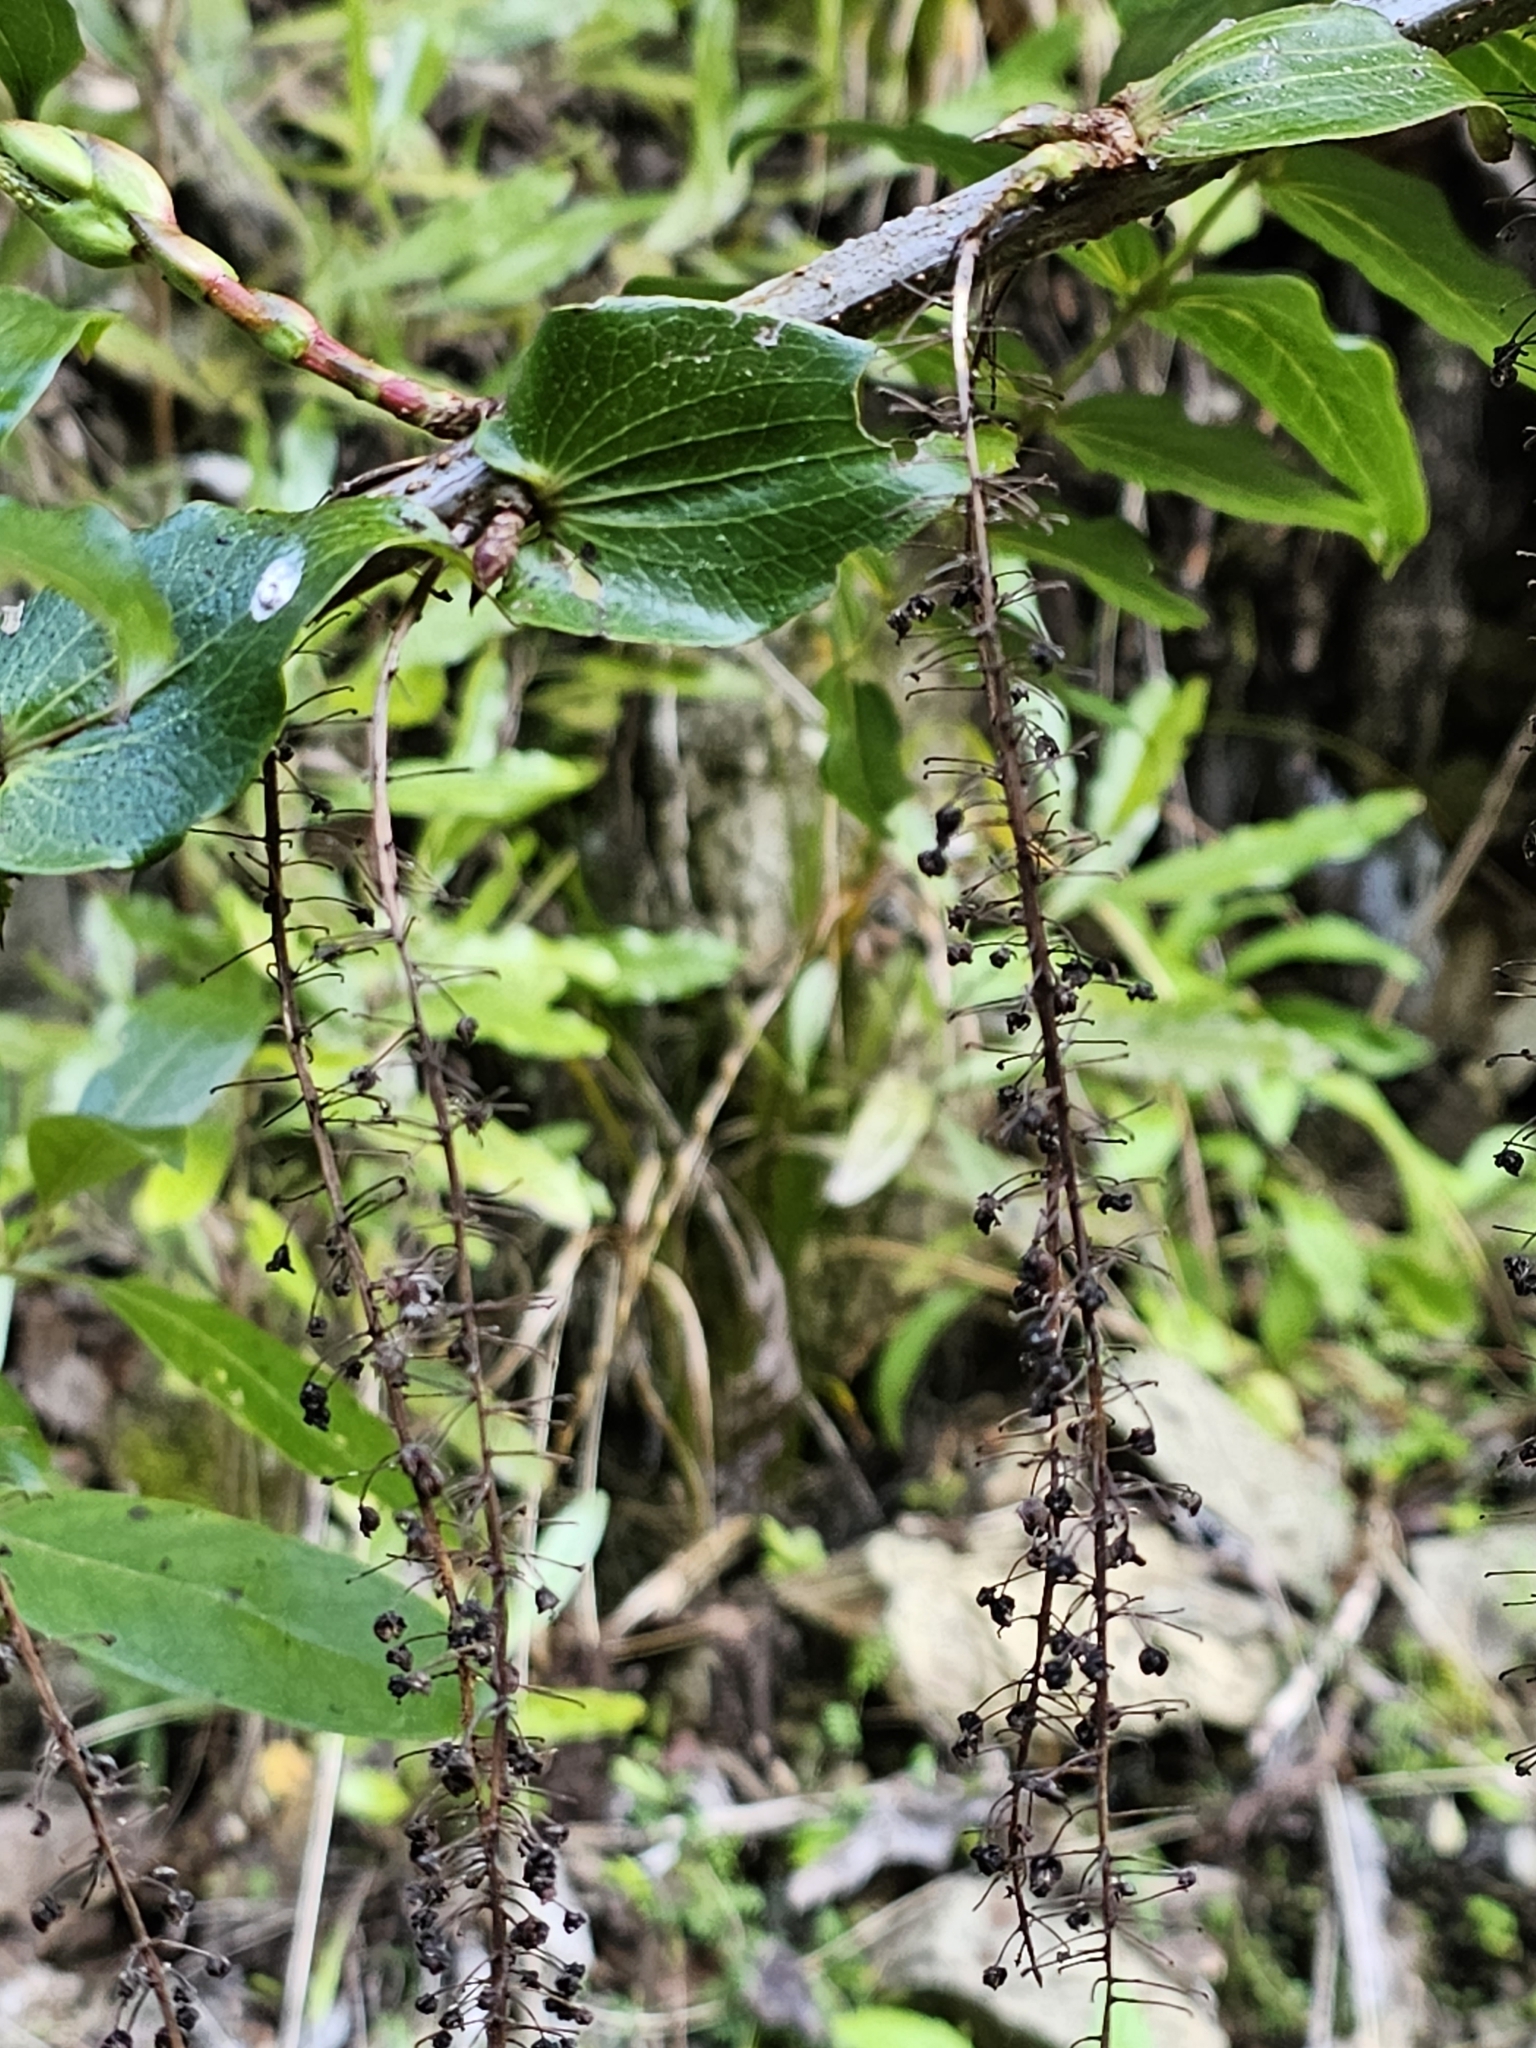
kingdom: Plantae
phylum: Tracheophyta
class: Magnoliopsida
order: Cucurbitales
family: Coriariaceae
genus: Coriaria
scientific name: Coriaria arborea
